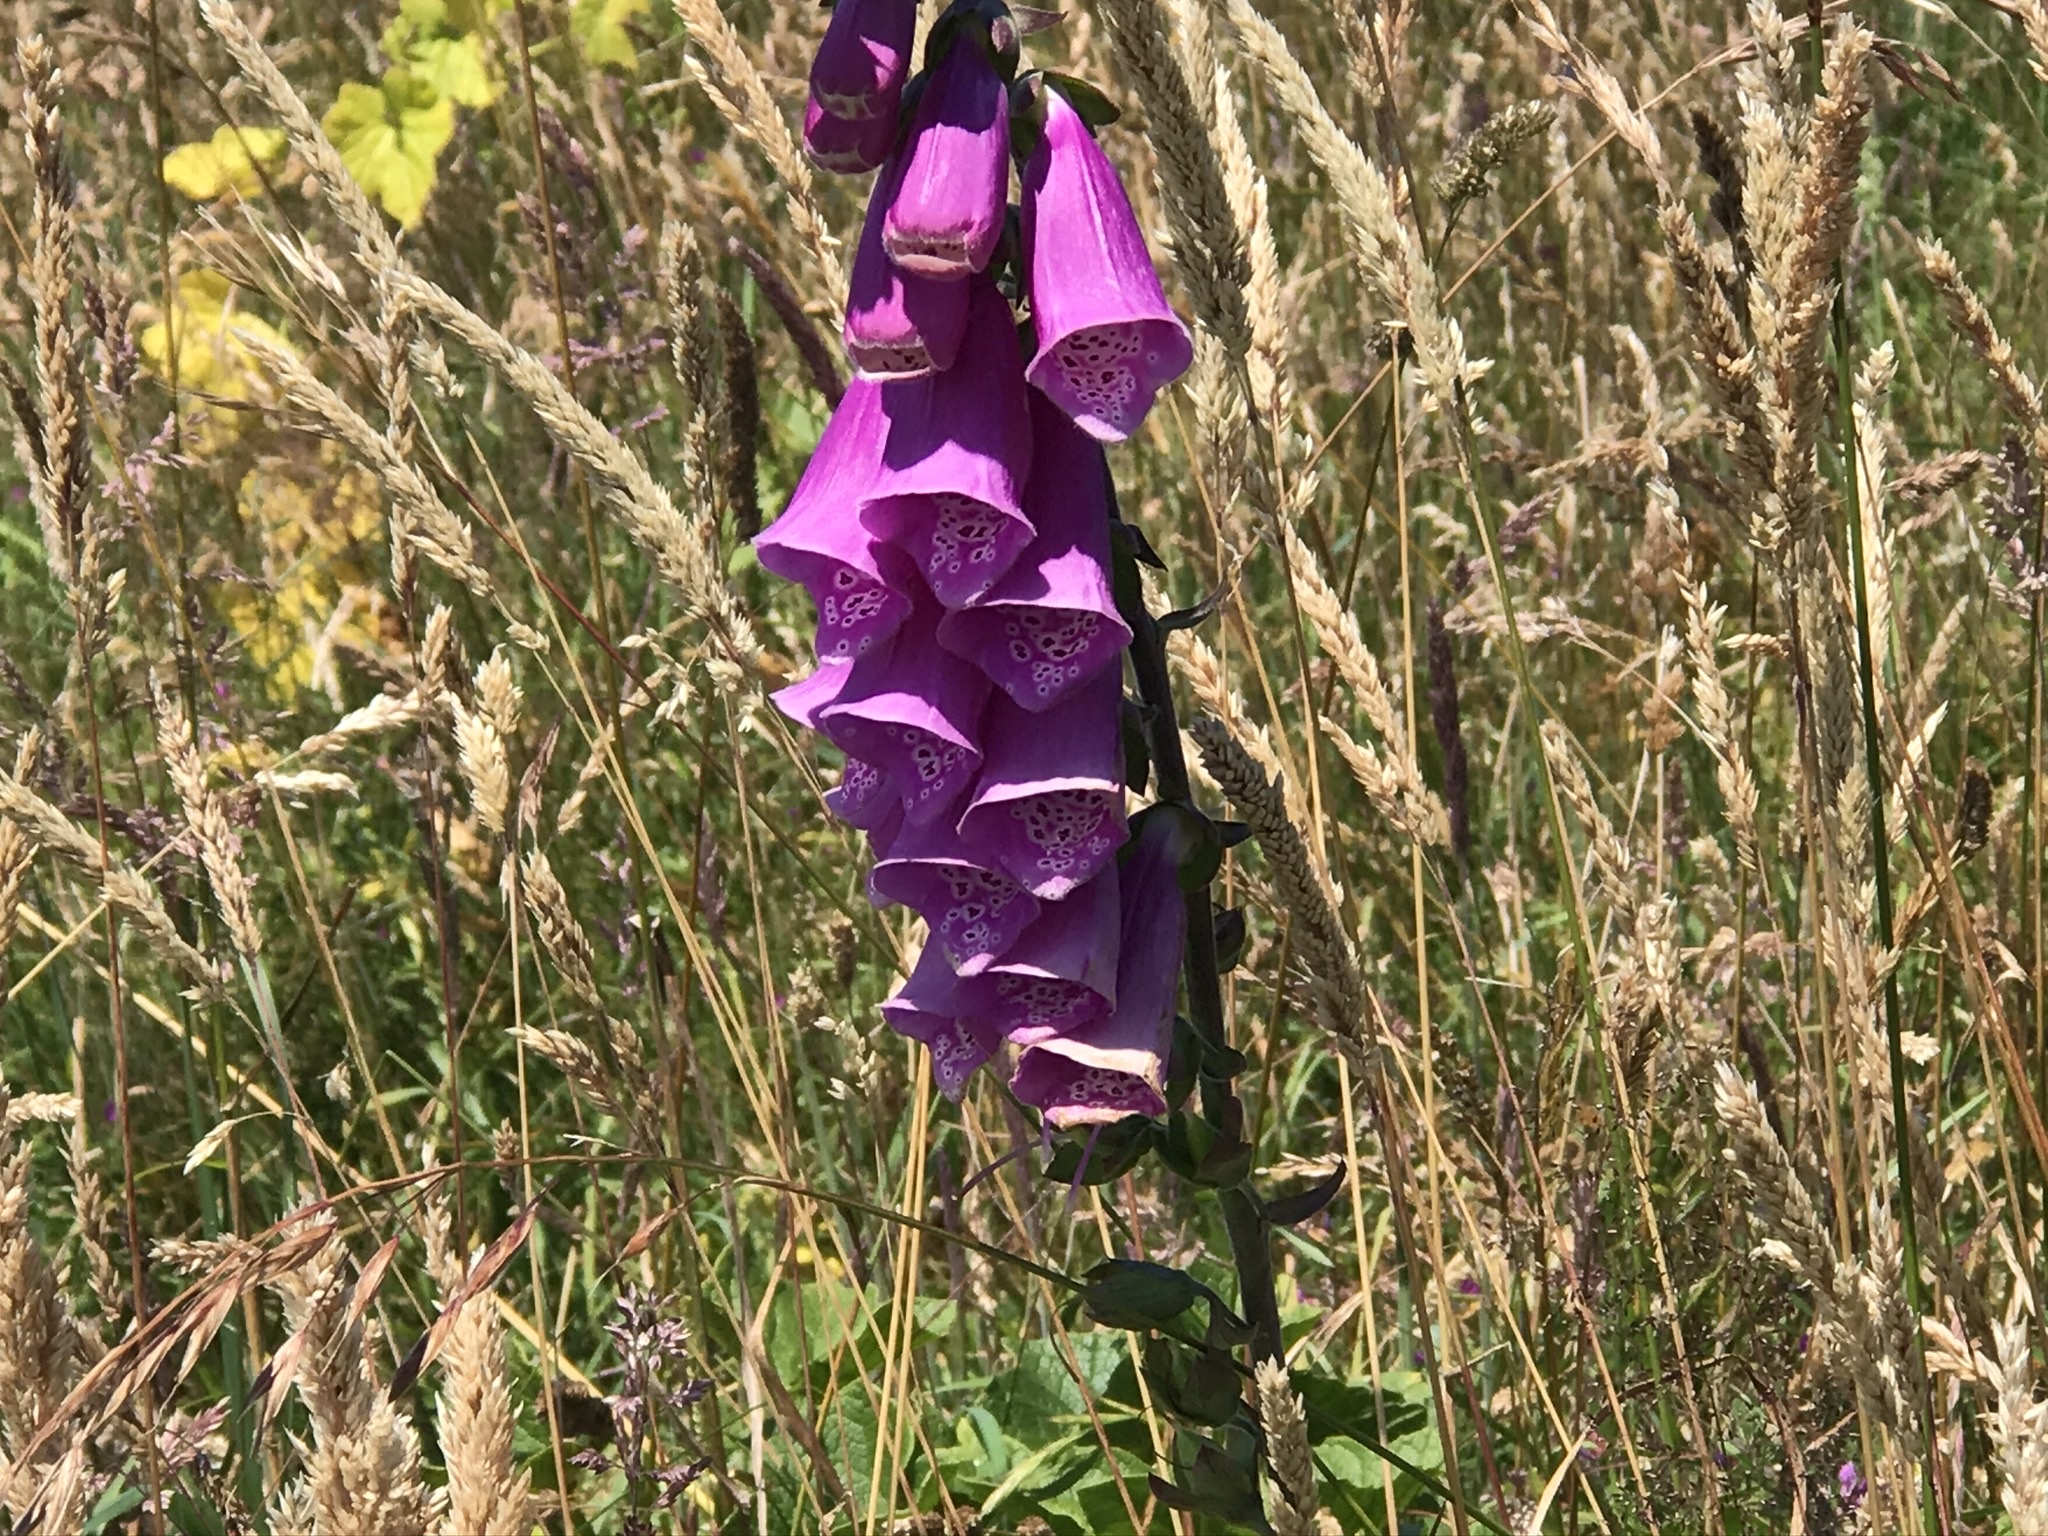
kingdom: Plantae
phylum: Tracheophyta
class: Magnoliopsida
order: Lamiales
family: Plantaginaceae
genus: Digitalis
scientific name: Digitalis purpurea
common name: Foxglove
